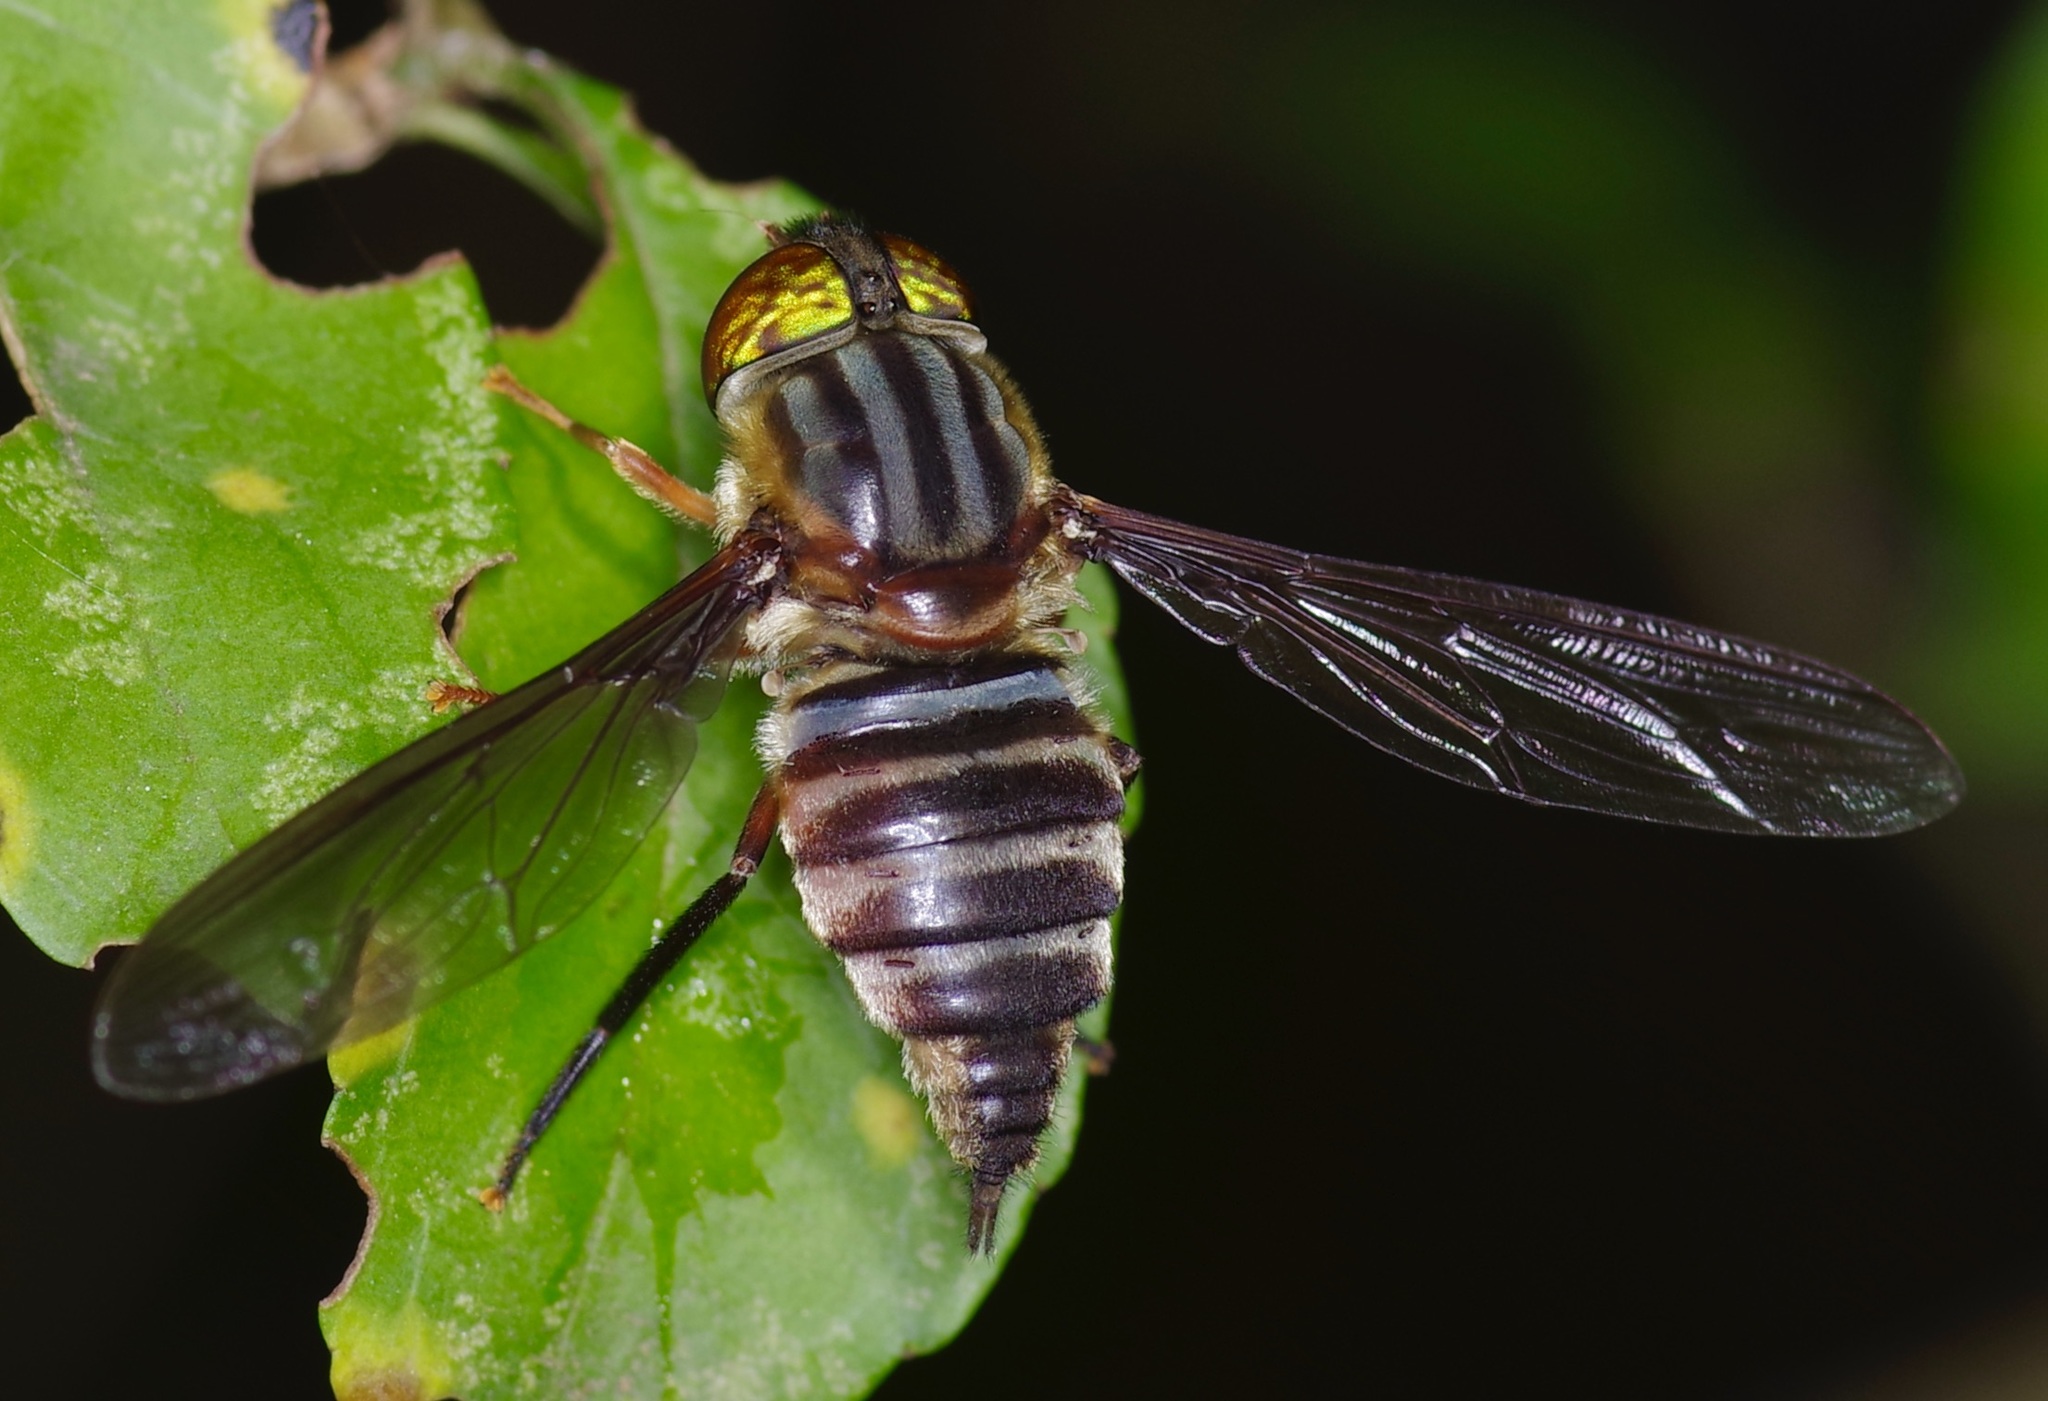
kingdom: Animalia
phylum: Arthropoda
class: Insecta
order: Diptera
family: Nemestrinidae
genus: Neohirmoneura
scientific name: Neohirmoneura
